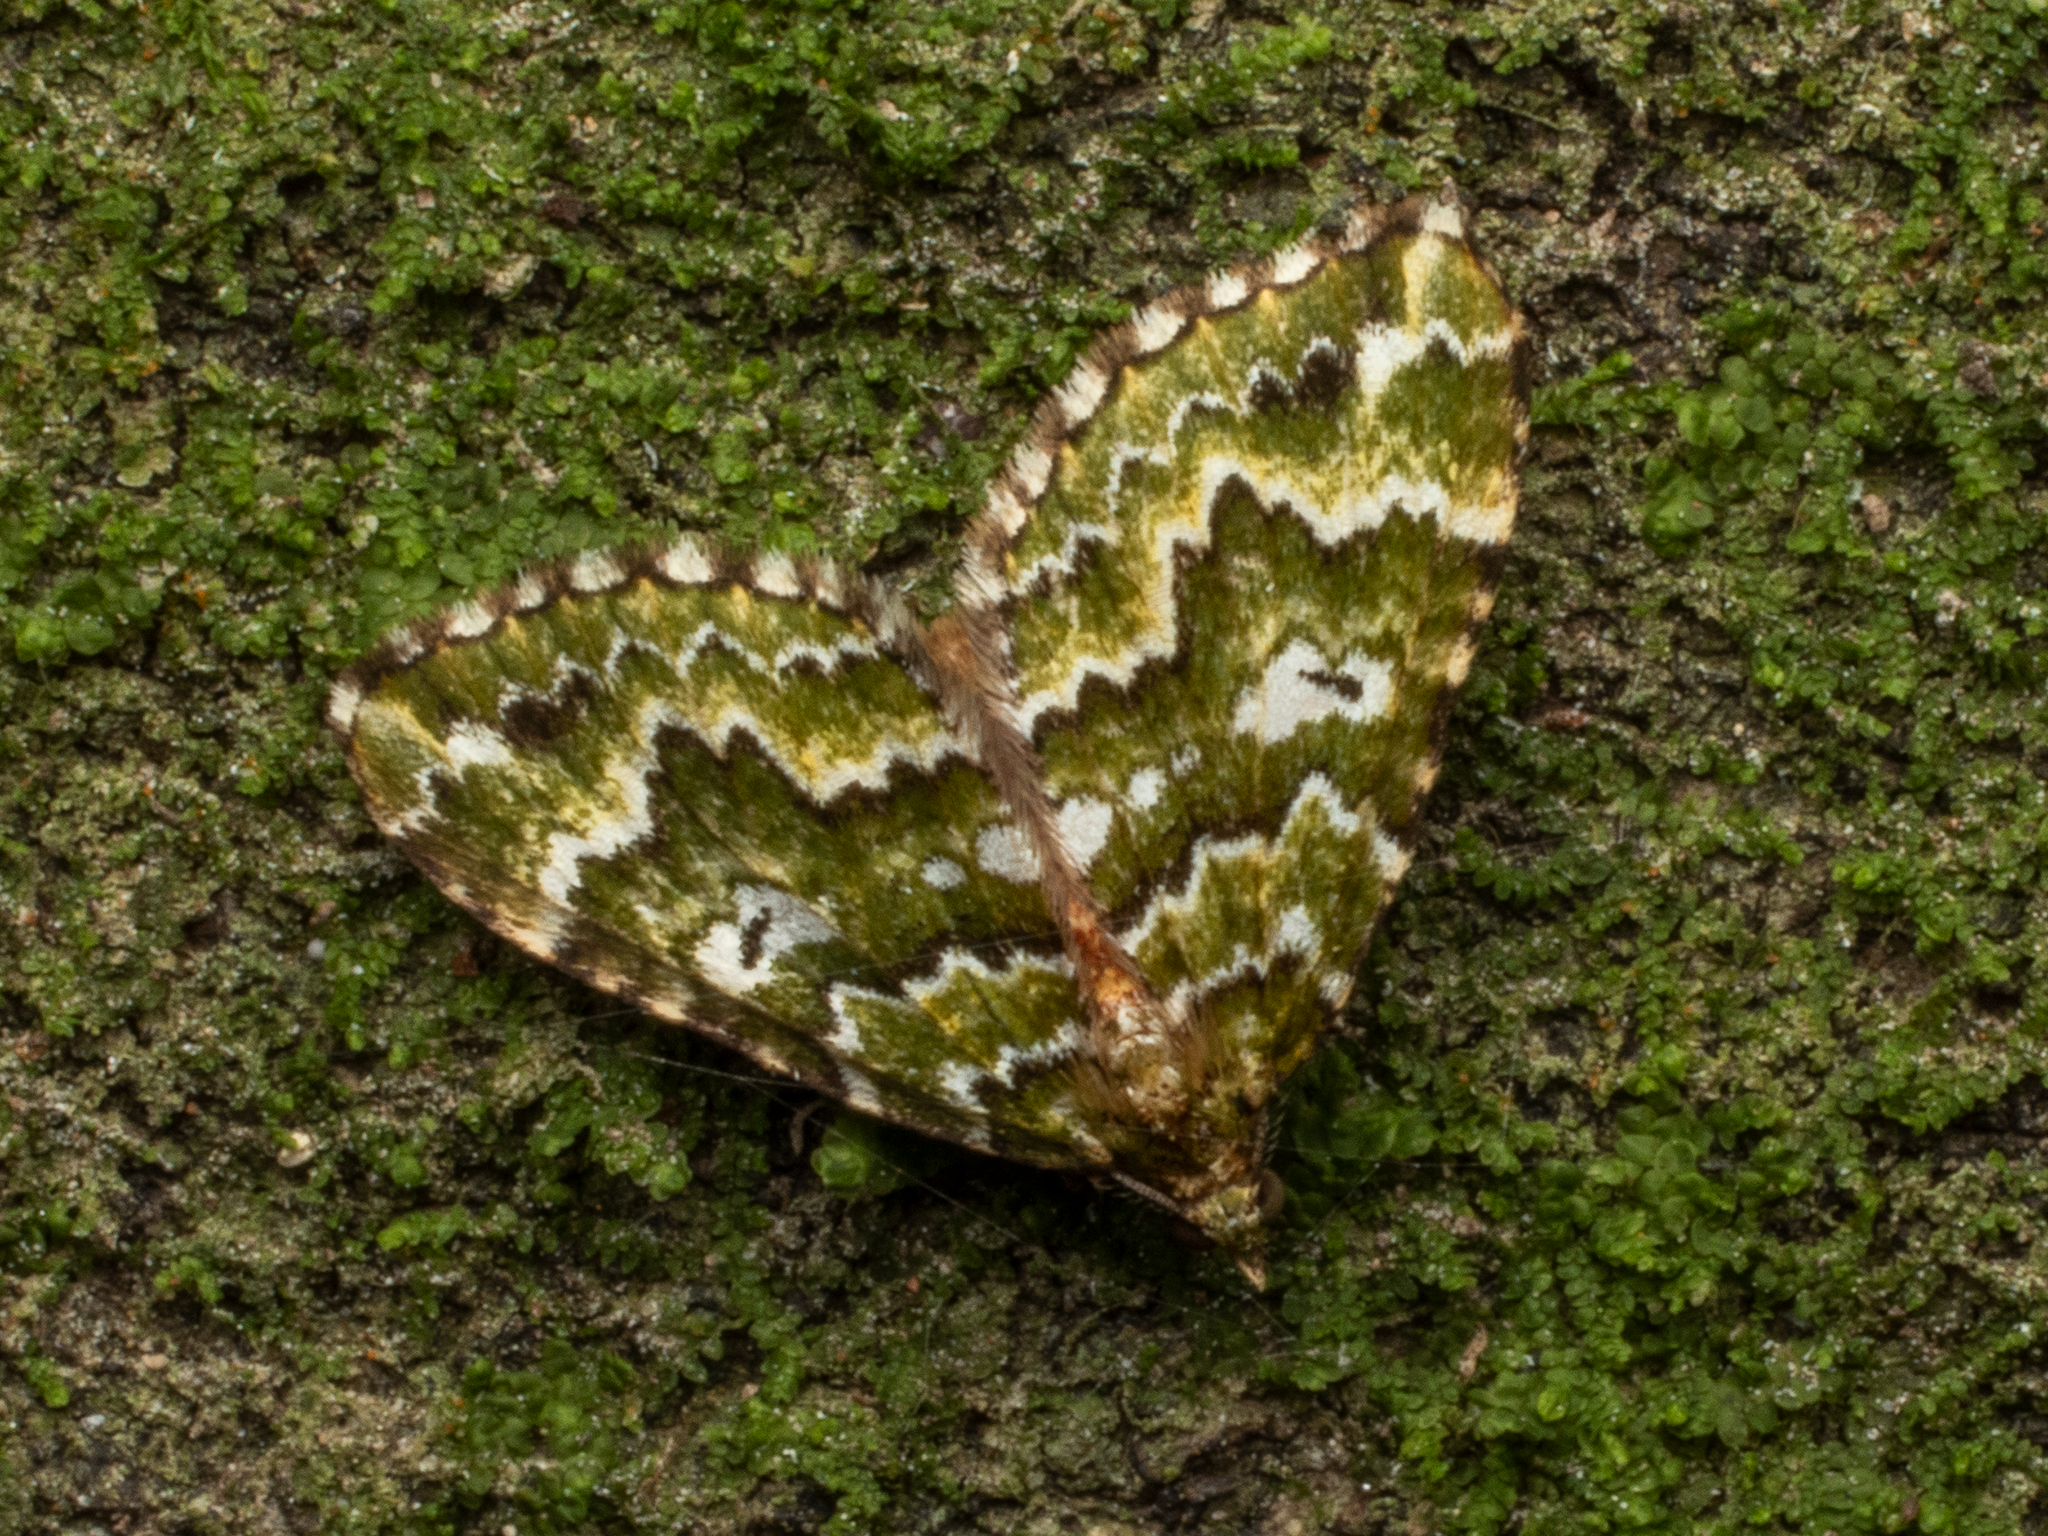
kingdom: Animalia
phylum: Arthropoda
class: Insecta
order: Lepidoptera
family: Geometridae
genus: Asaphodes
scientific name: Asaphodes beata
